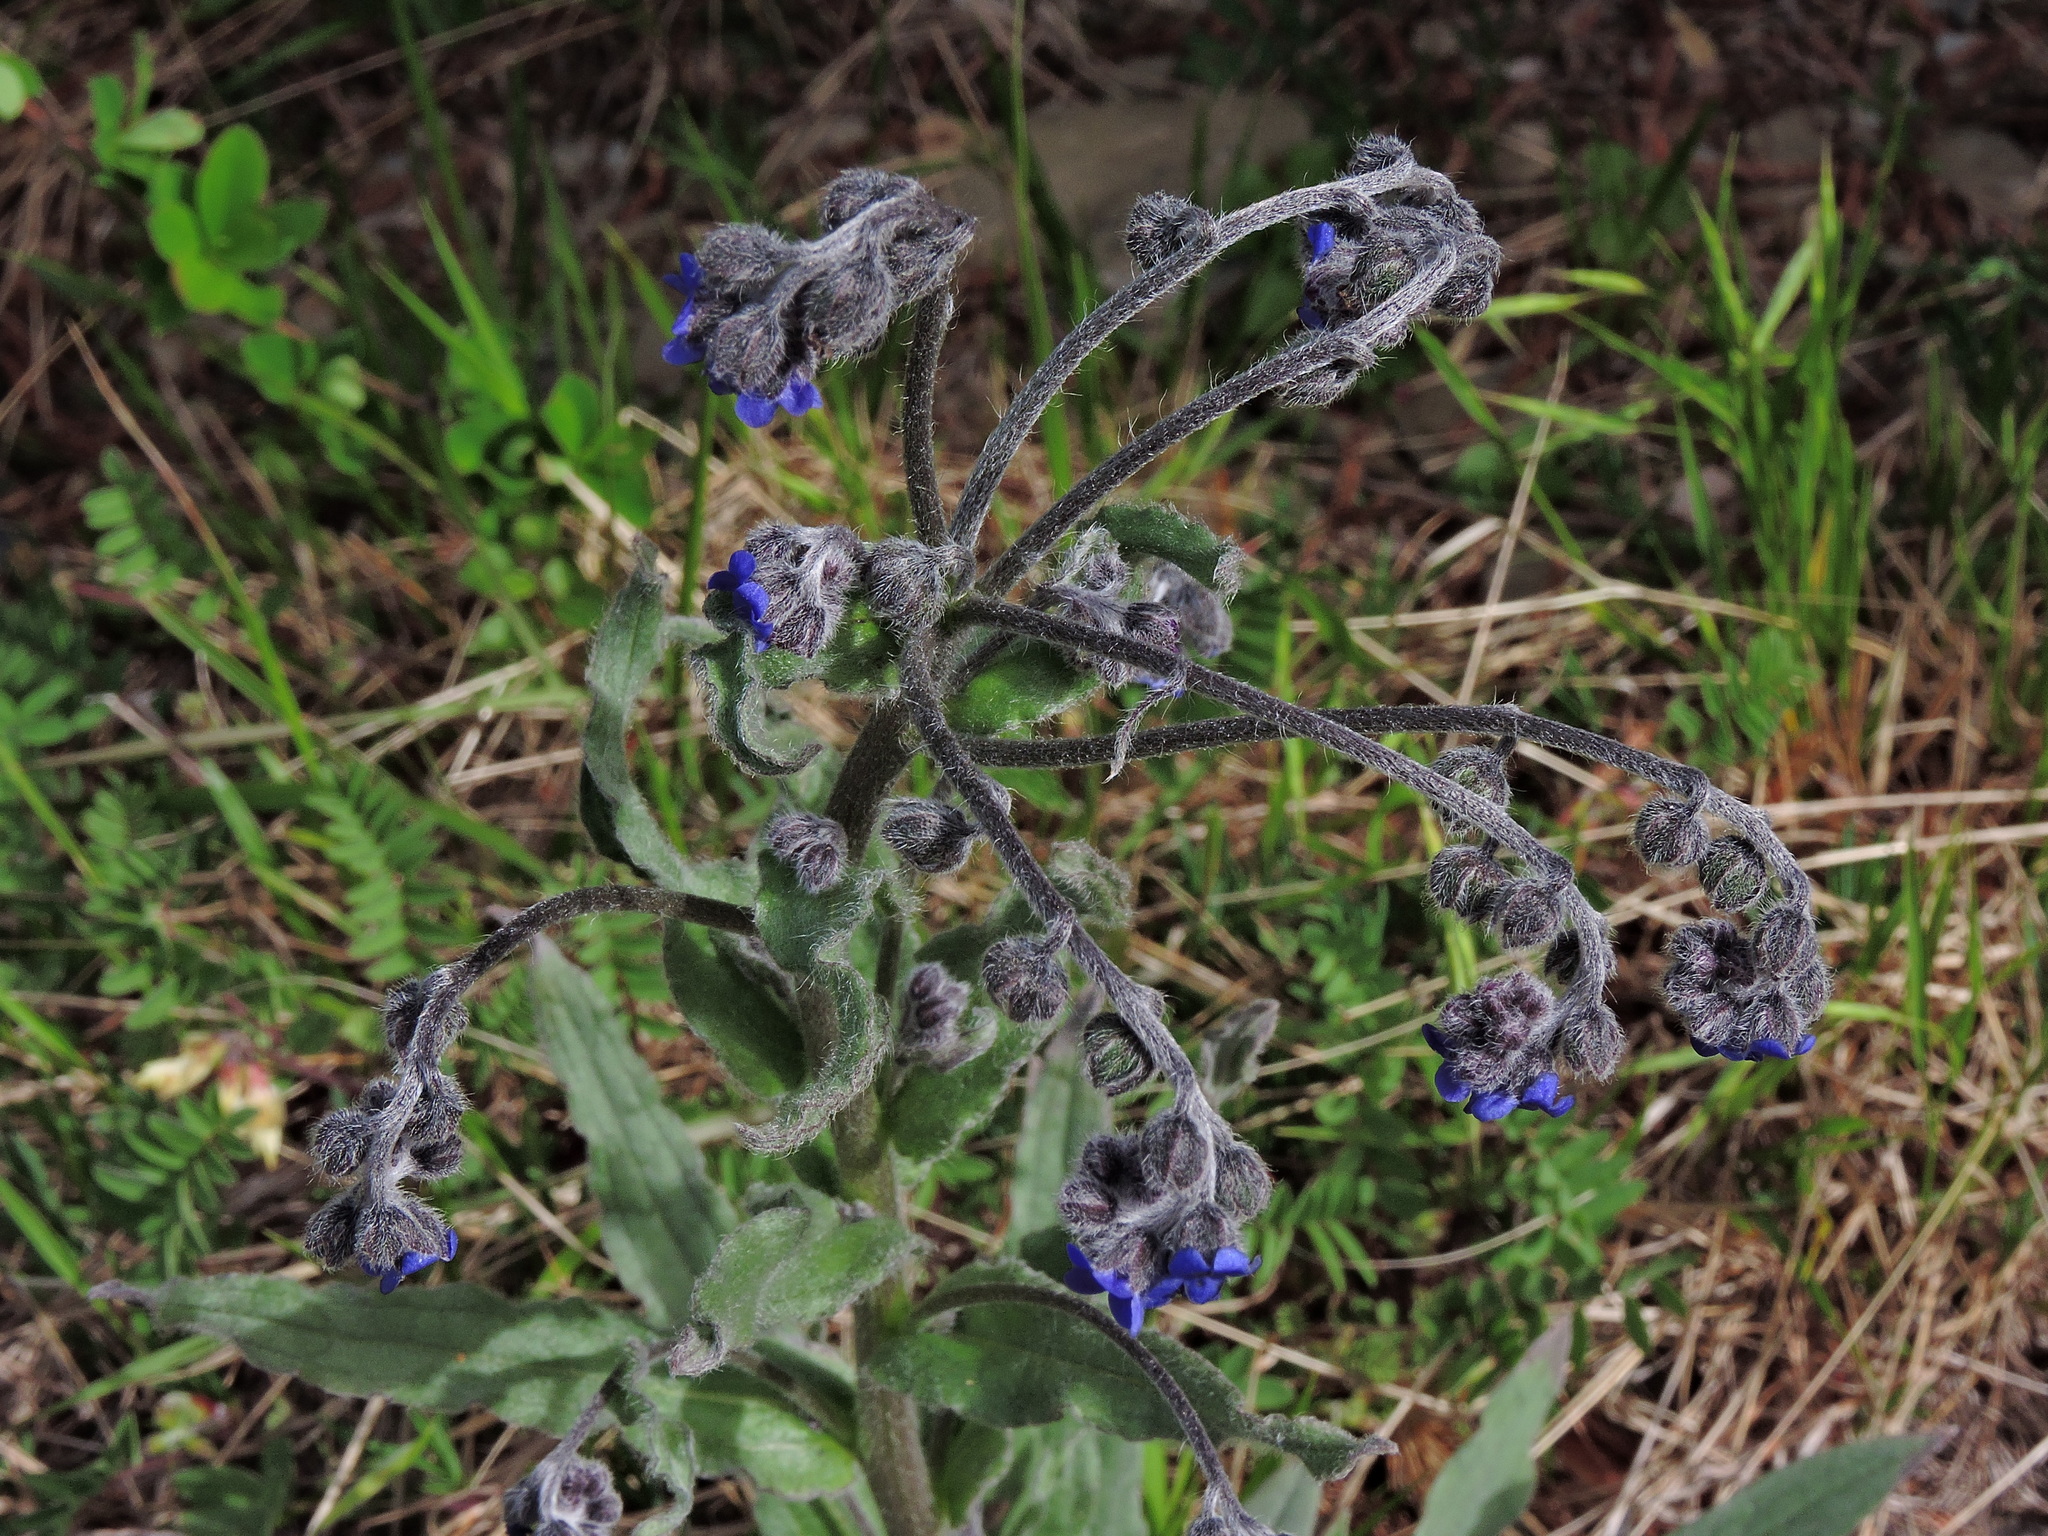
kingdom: Plantae
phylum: Tracheophyta
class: Magnoliopsida
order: Boraginales
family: Boraginaceae
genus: Cynoglossum
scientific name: Cynoglossum alpestre
